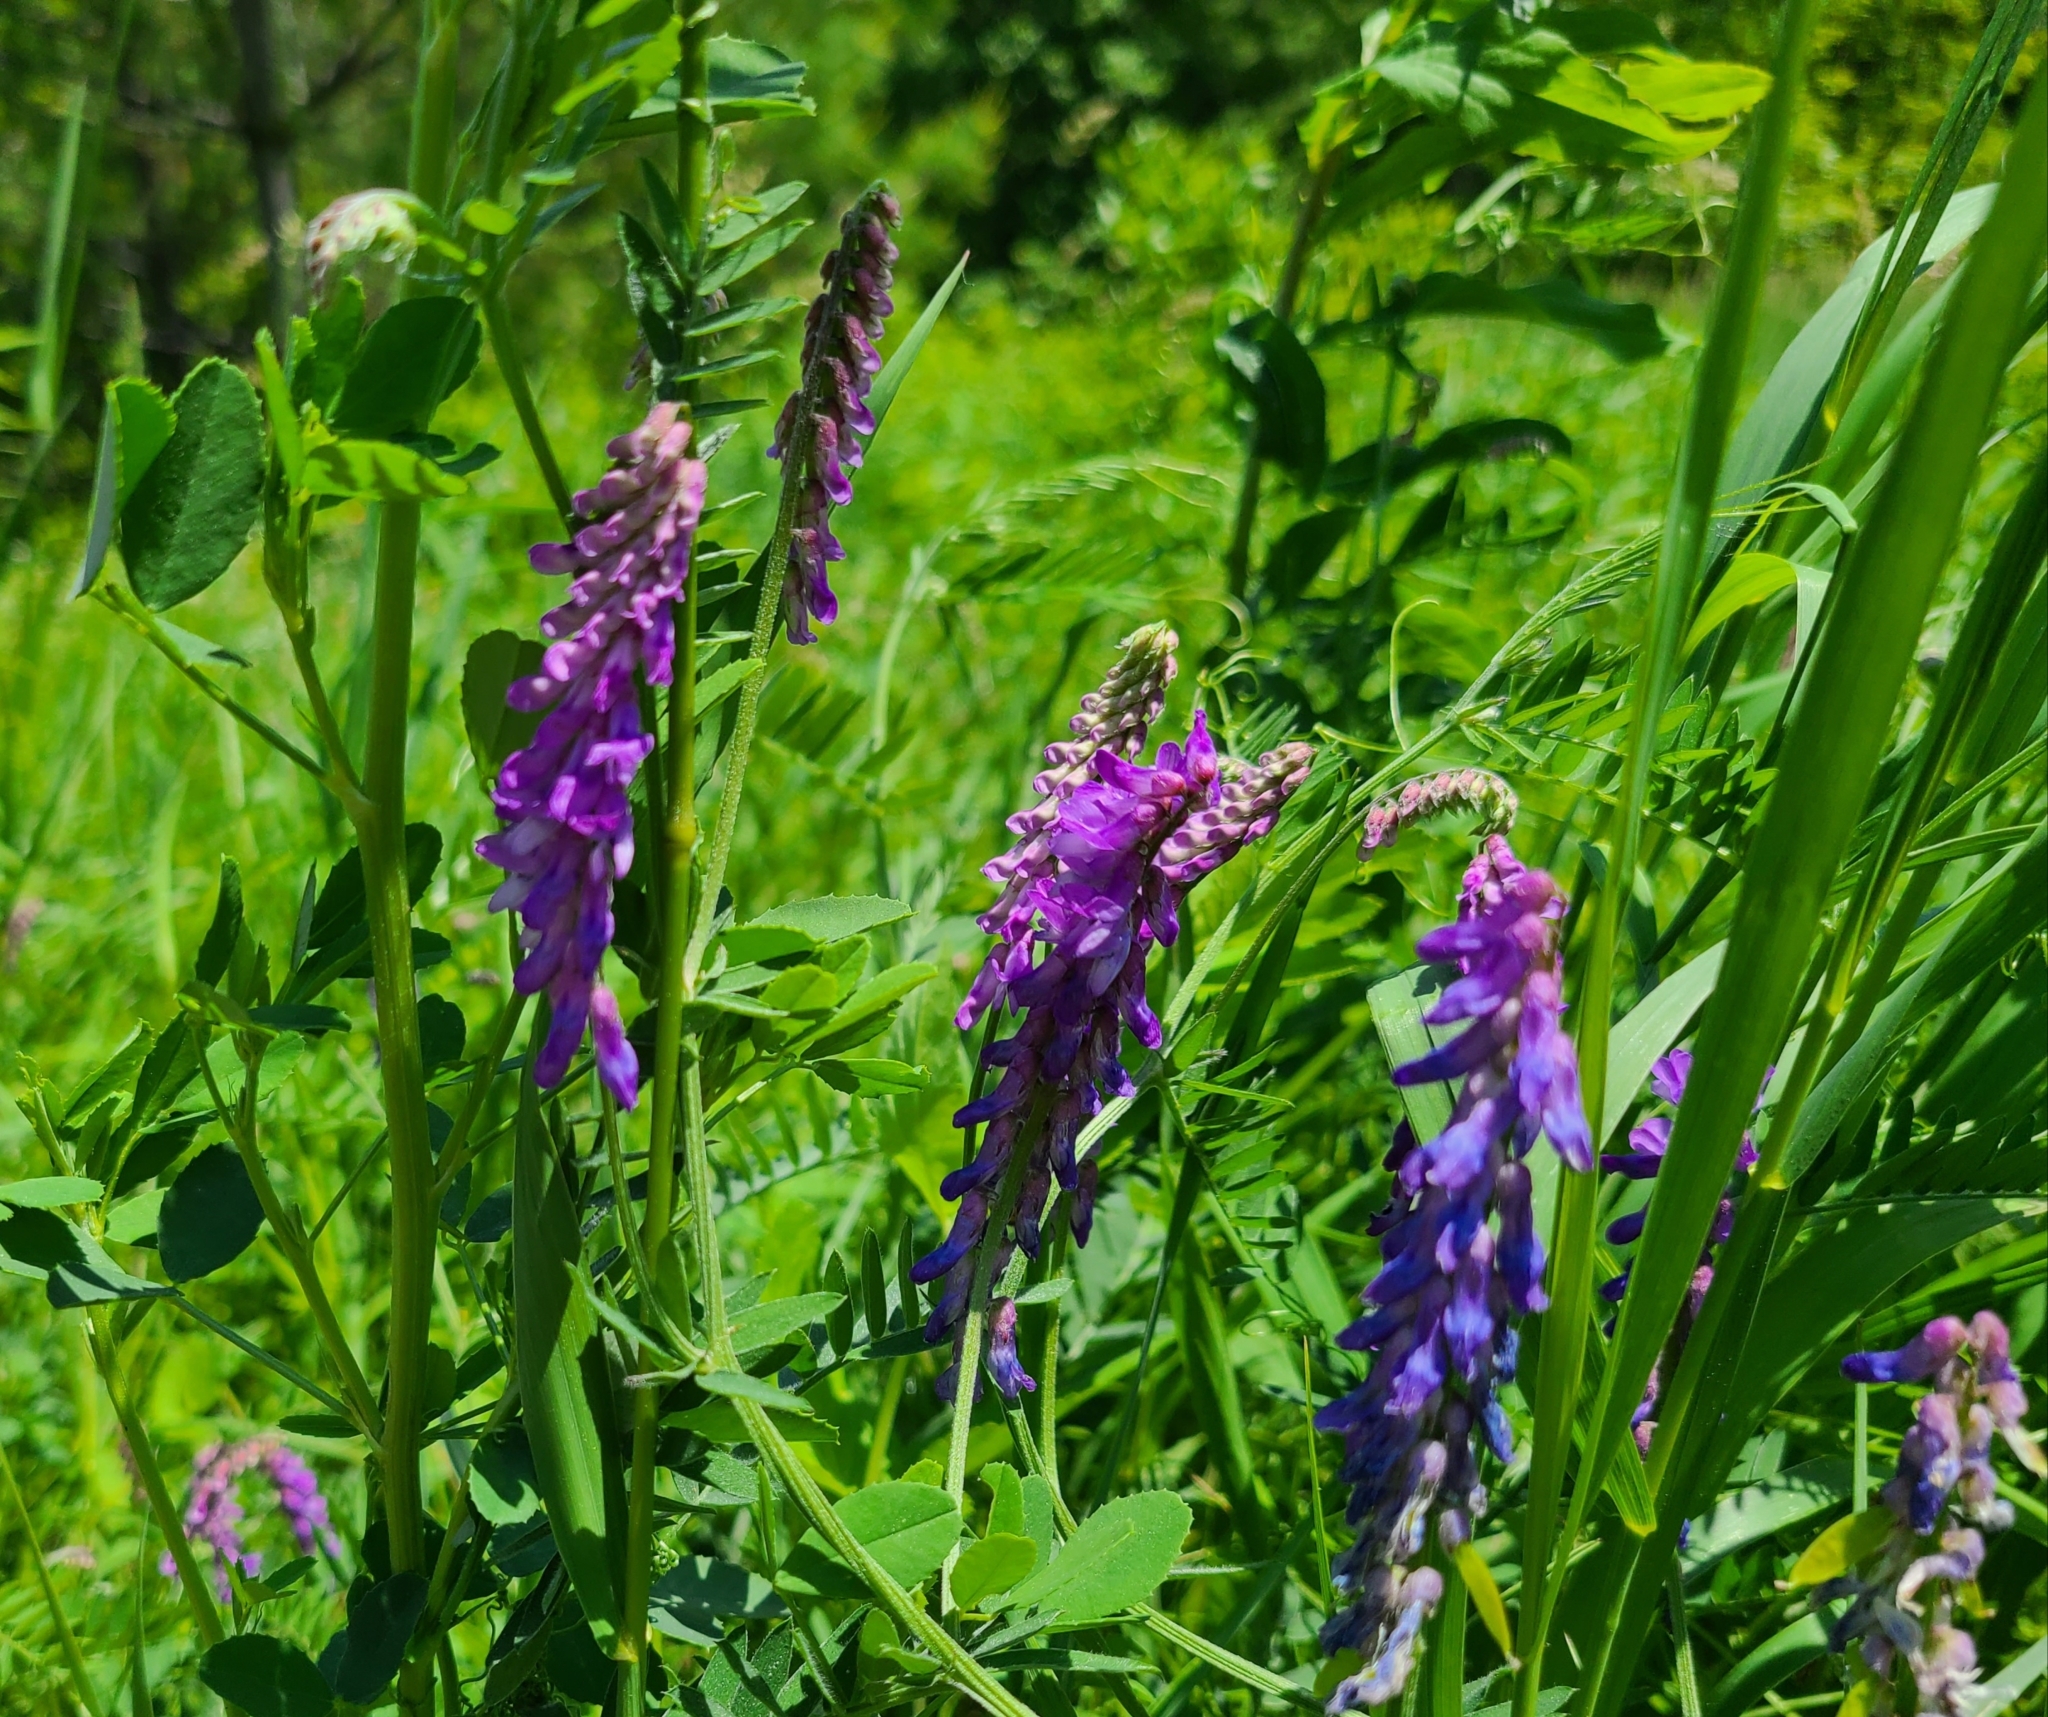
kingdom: Plantae
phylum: Tracheophyta
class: Magnoliopsida
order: Fabales
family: Fabaceae
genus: Vicia
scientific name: Vicia cracca
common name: Bird vetch
